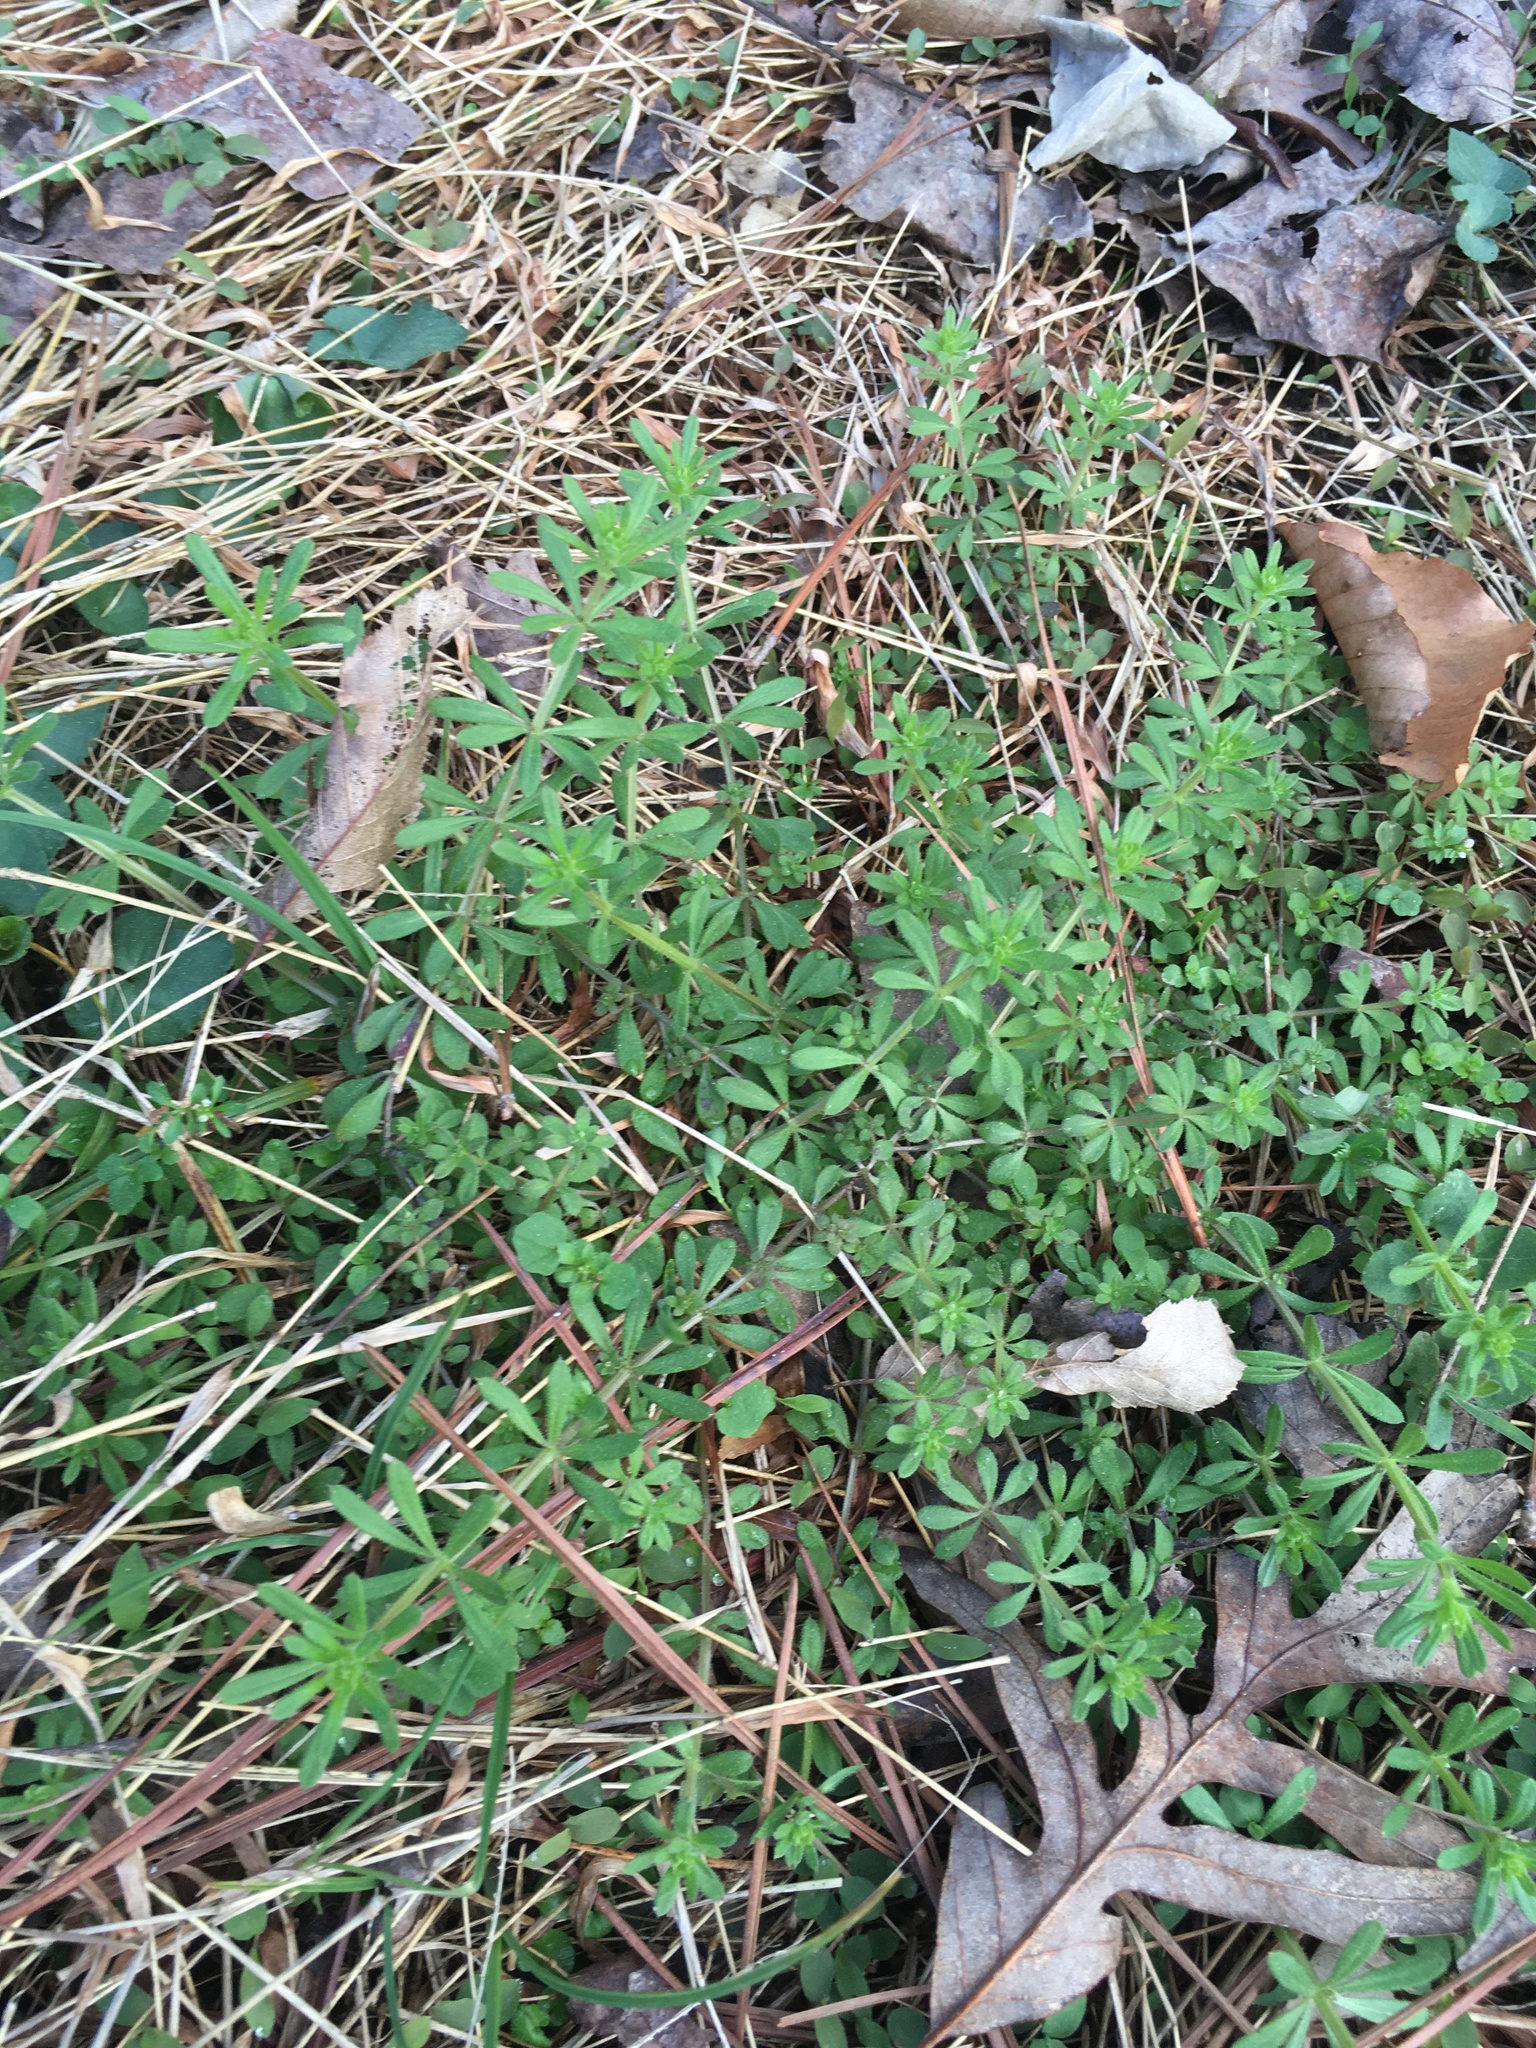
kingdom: Plantae
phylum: Tracheophyta
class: Magnoliopsida
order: Gentianales
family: Rubiaceae
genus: Galium
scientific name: Galium aparine
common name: Cleavers
